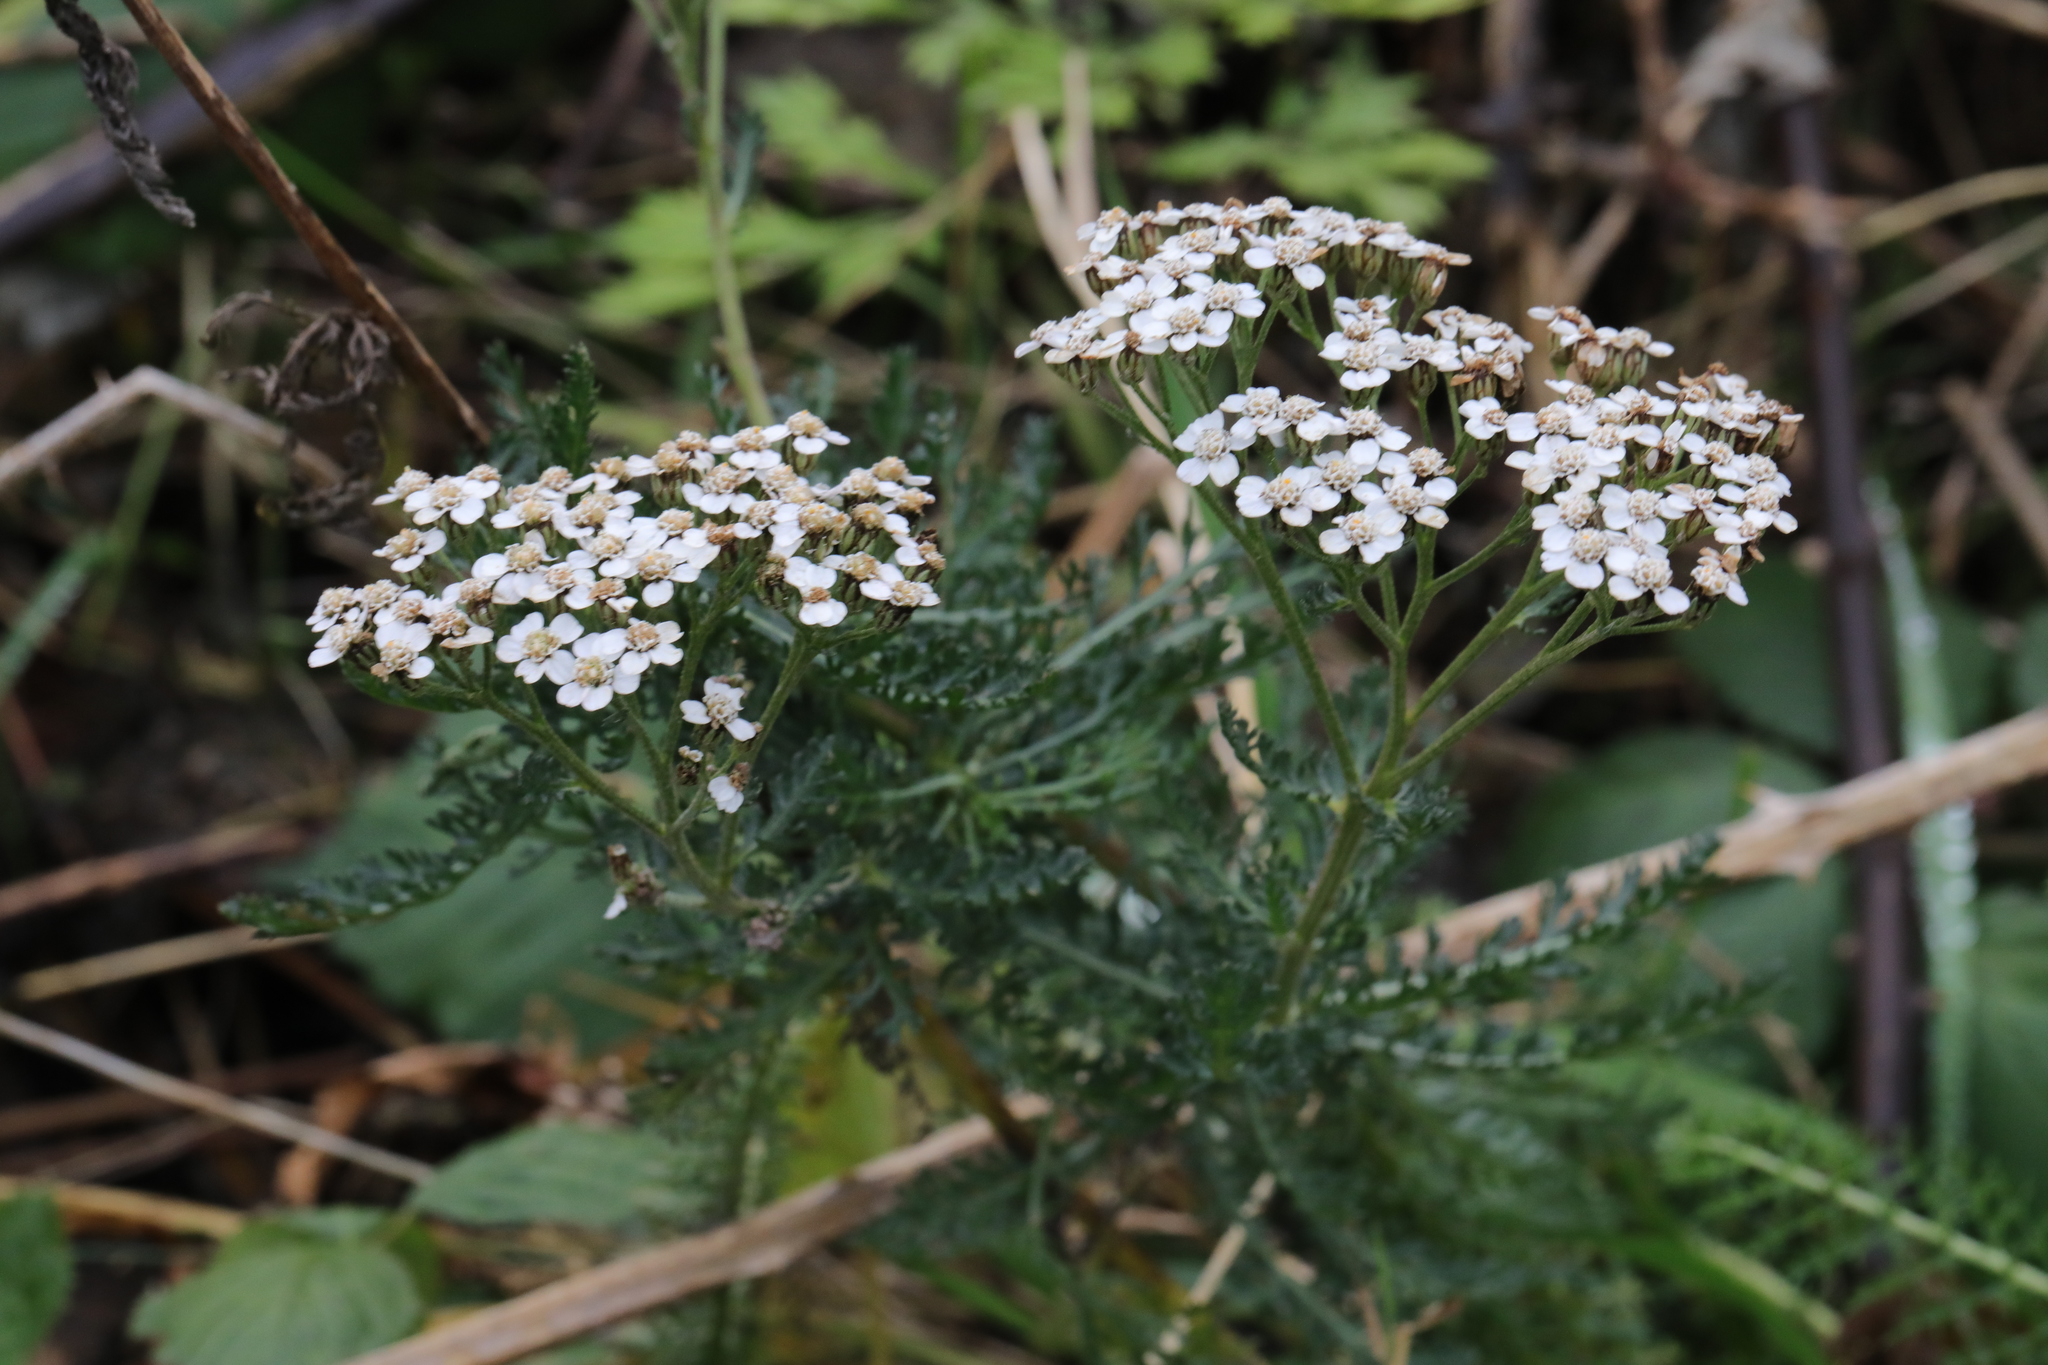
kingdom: Plantae
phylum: Tracheophyta
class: Magnoliopsida
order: Asterales
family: Asteraceae
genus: Achillea
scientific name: Achillea millefolium
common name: Yarrow
